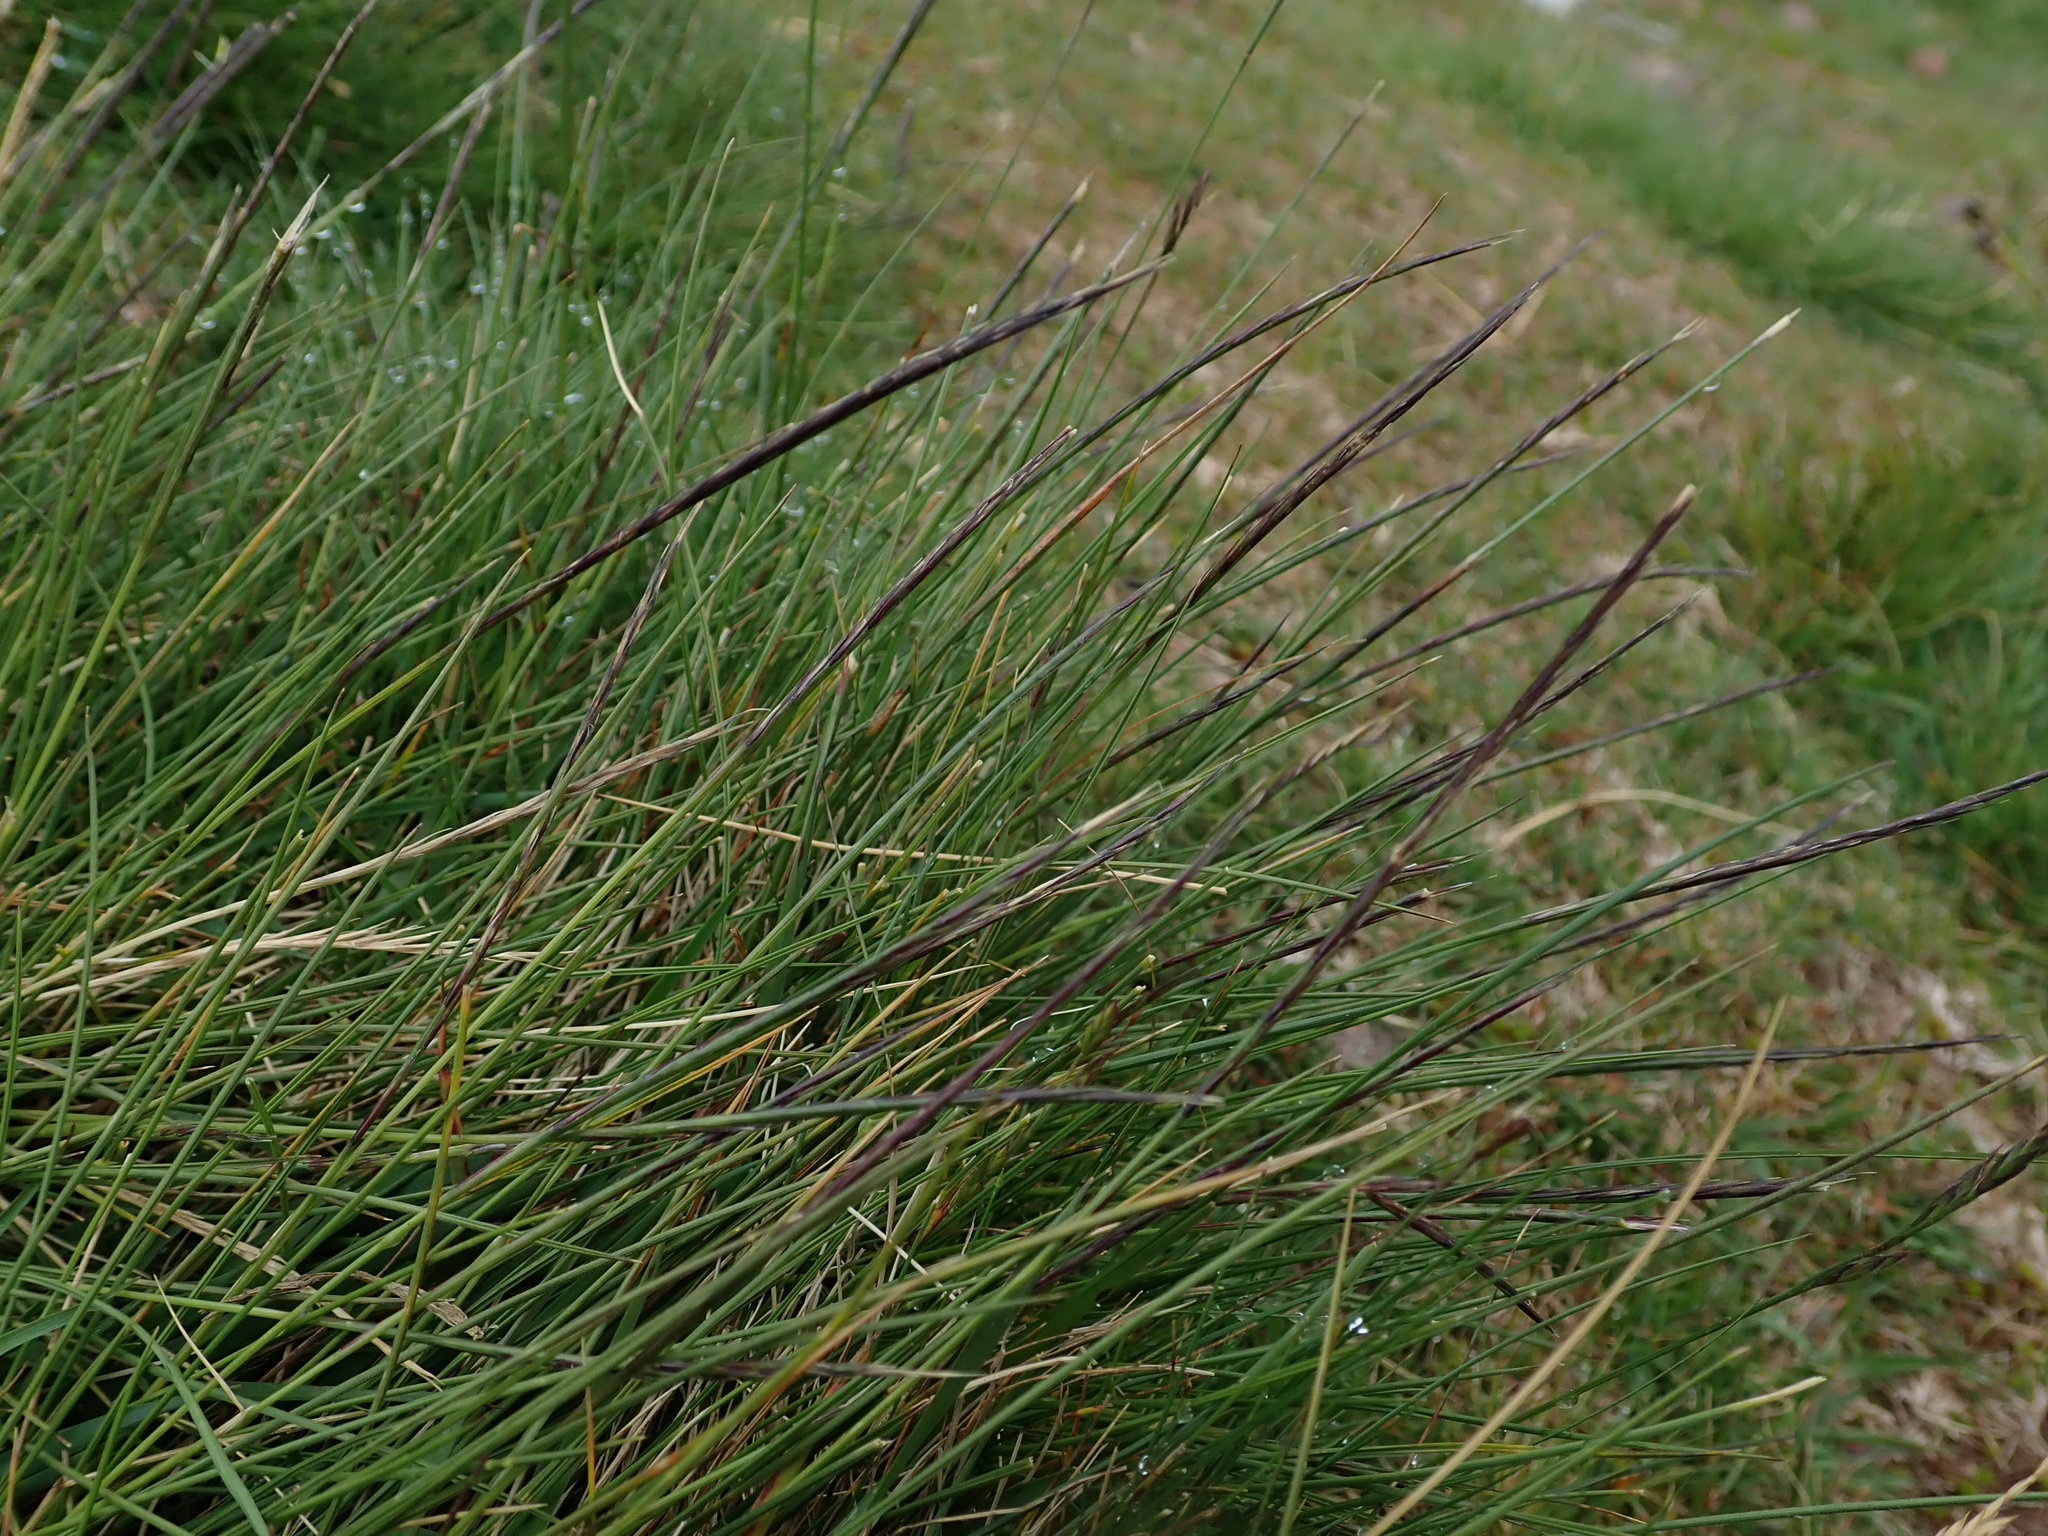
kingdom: Plantae
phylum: Tracheophyta
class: Liliopsida
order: Poales
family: Poaceae
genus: Nardus
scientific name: Nardus stricta
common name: Mat-grass
